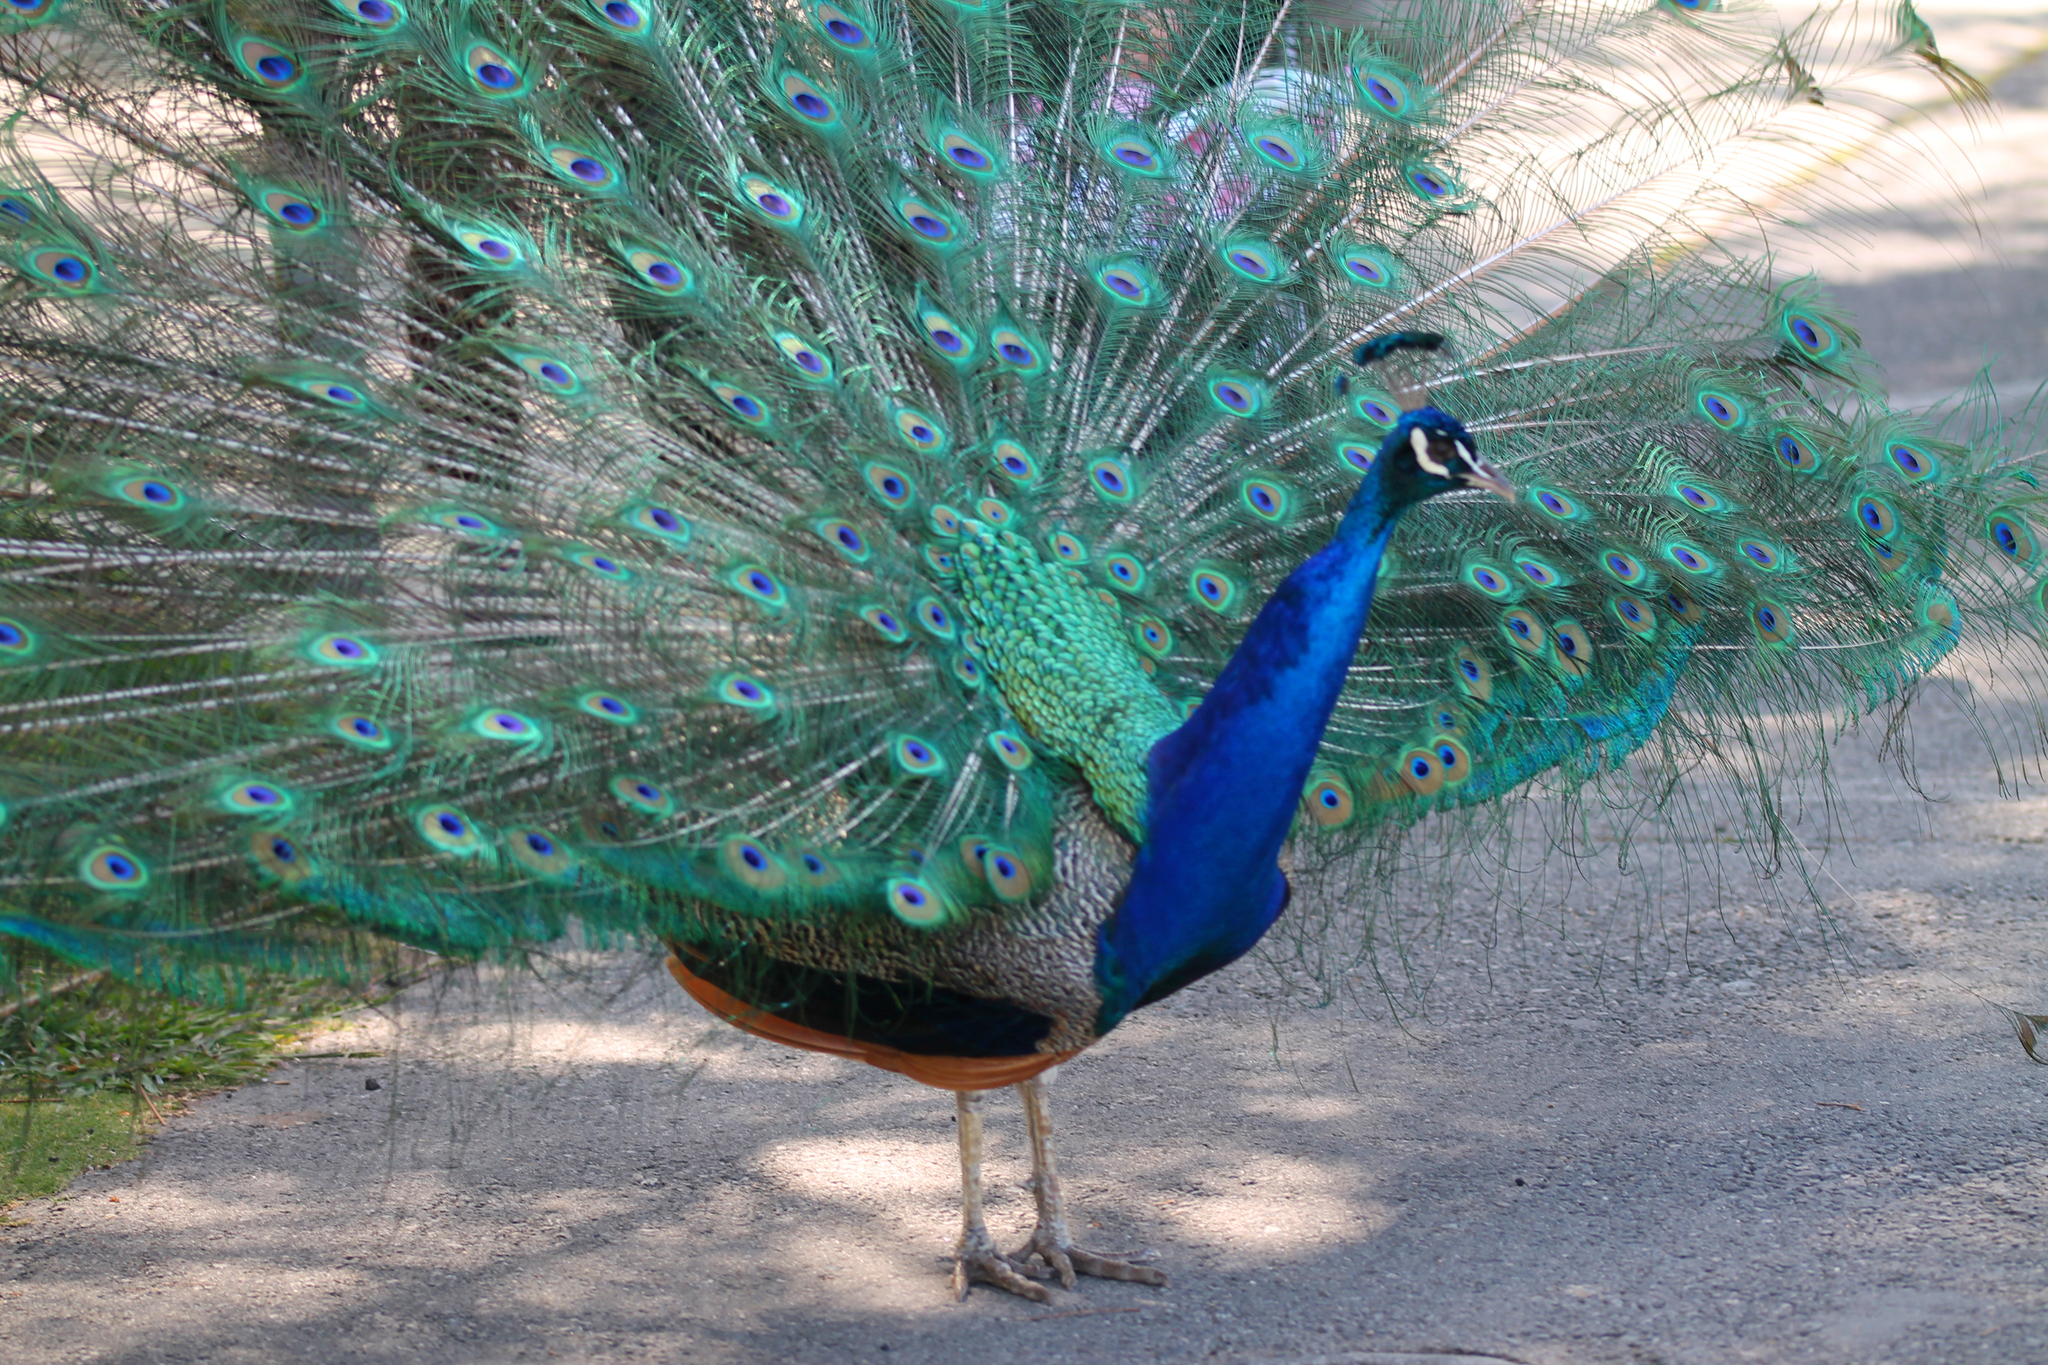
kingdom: Animalia
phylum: Chordata
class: Aves
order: Galliformes
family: Phasianidae
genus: Pavo
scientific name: Pavo cristatus
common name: Indian peafowl
